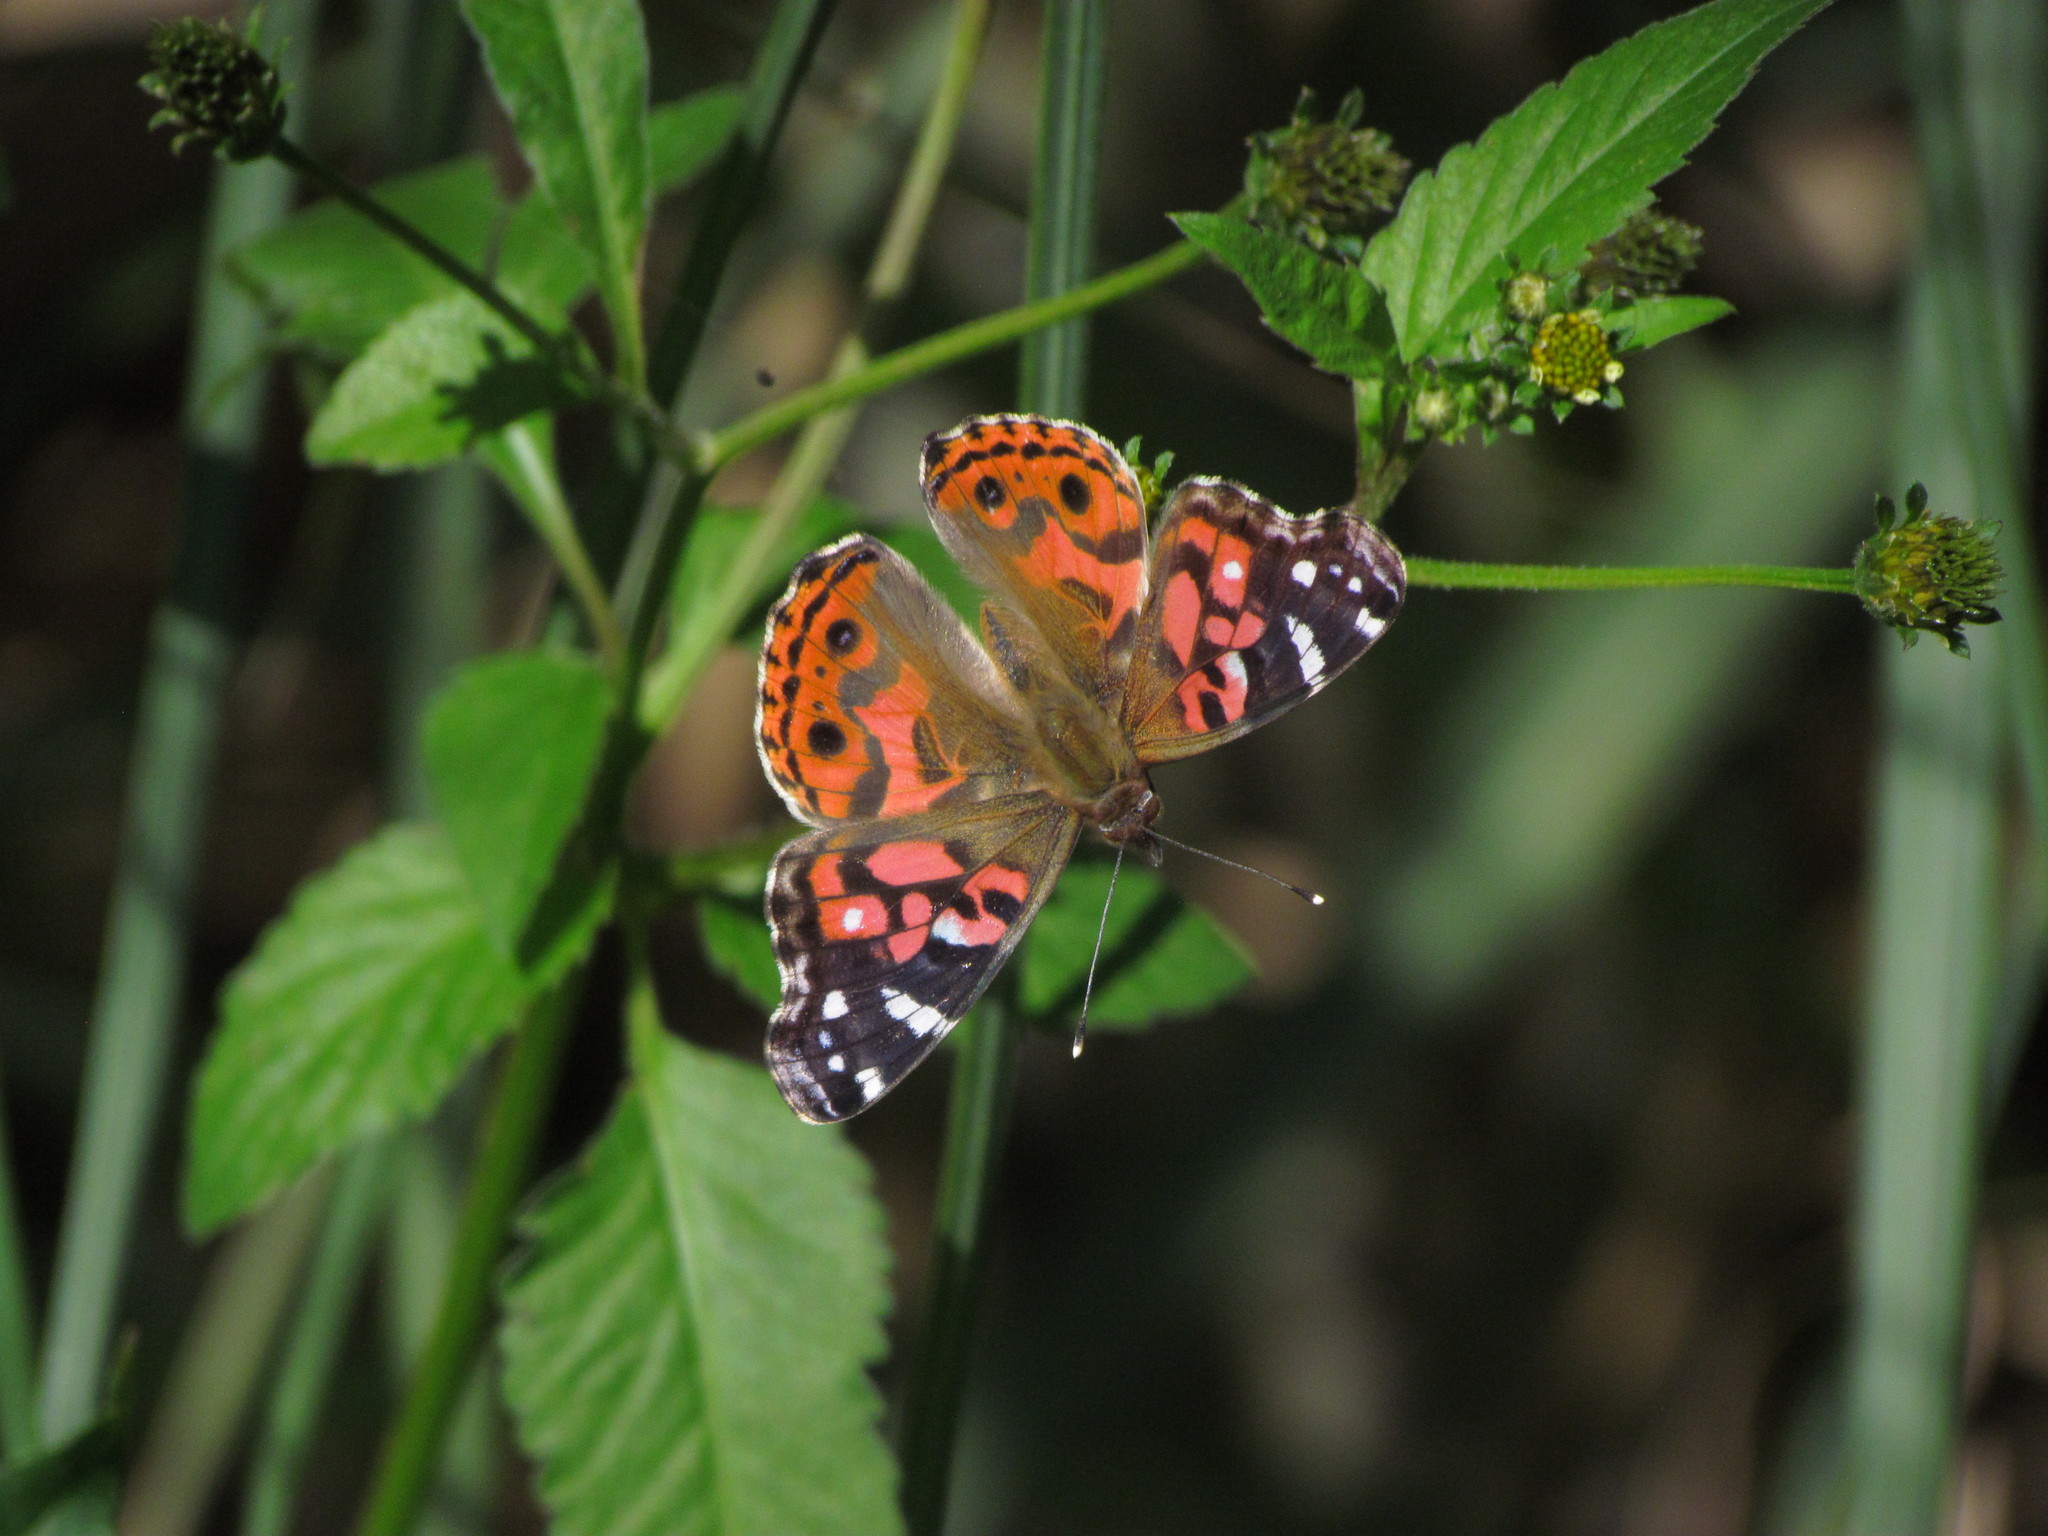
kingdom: Animalia
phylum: Arthropoda
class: Insecta
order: Lepidoptera
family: Nymphalidae
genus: Vanessa
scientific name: Vanessa braziliensis
